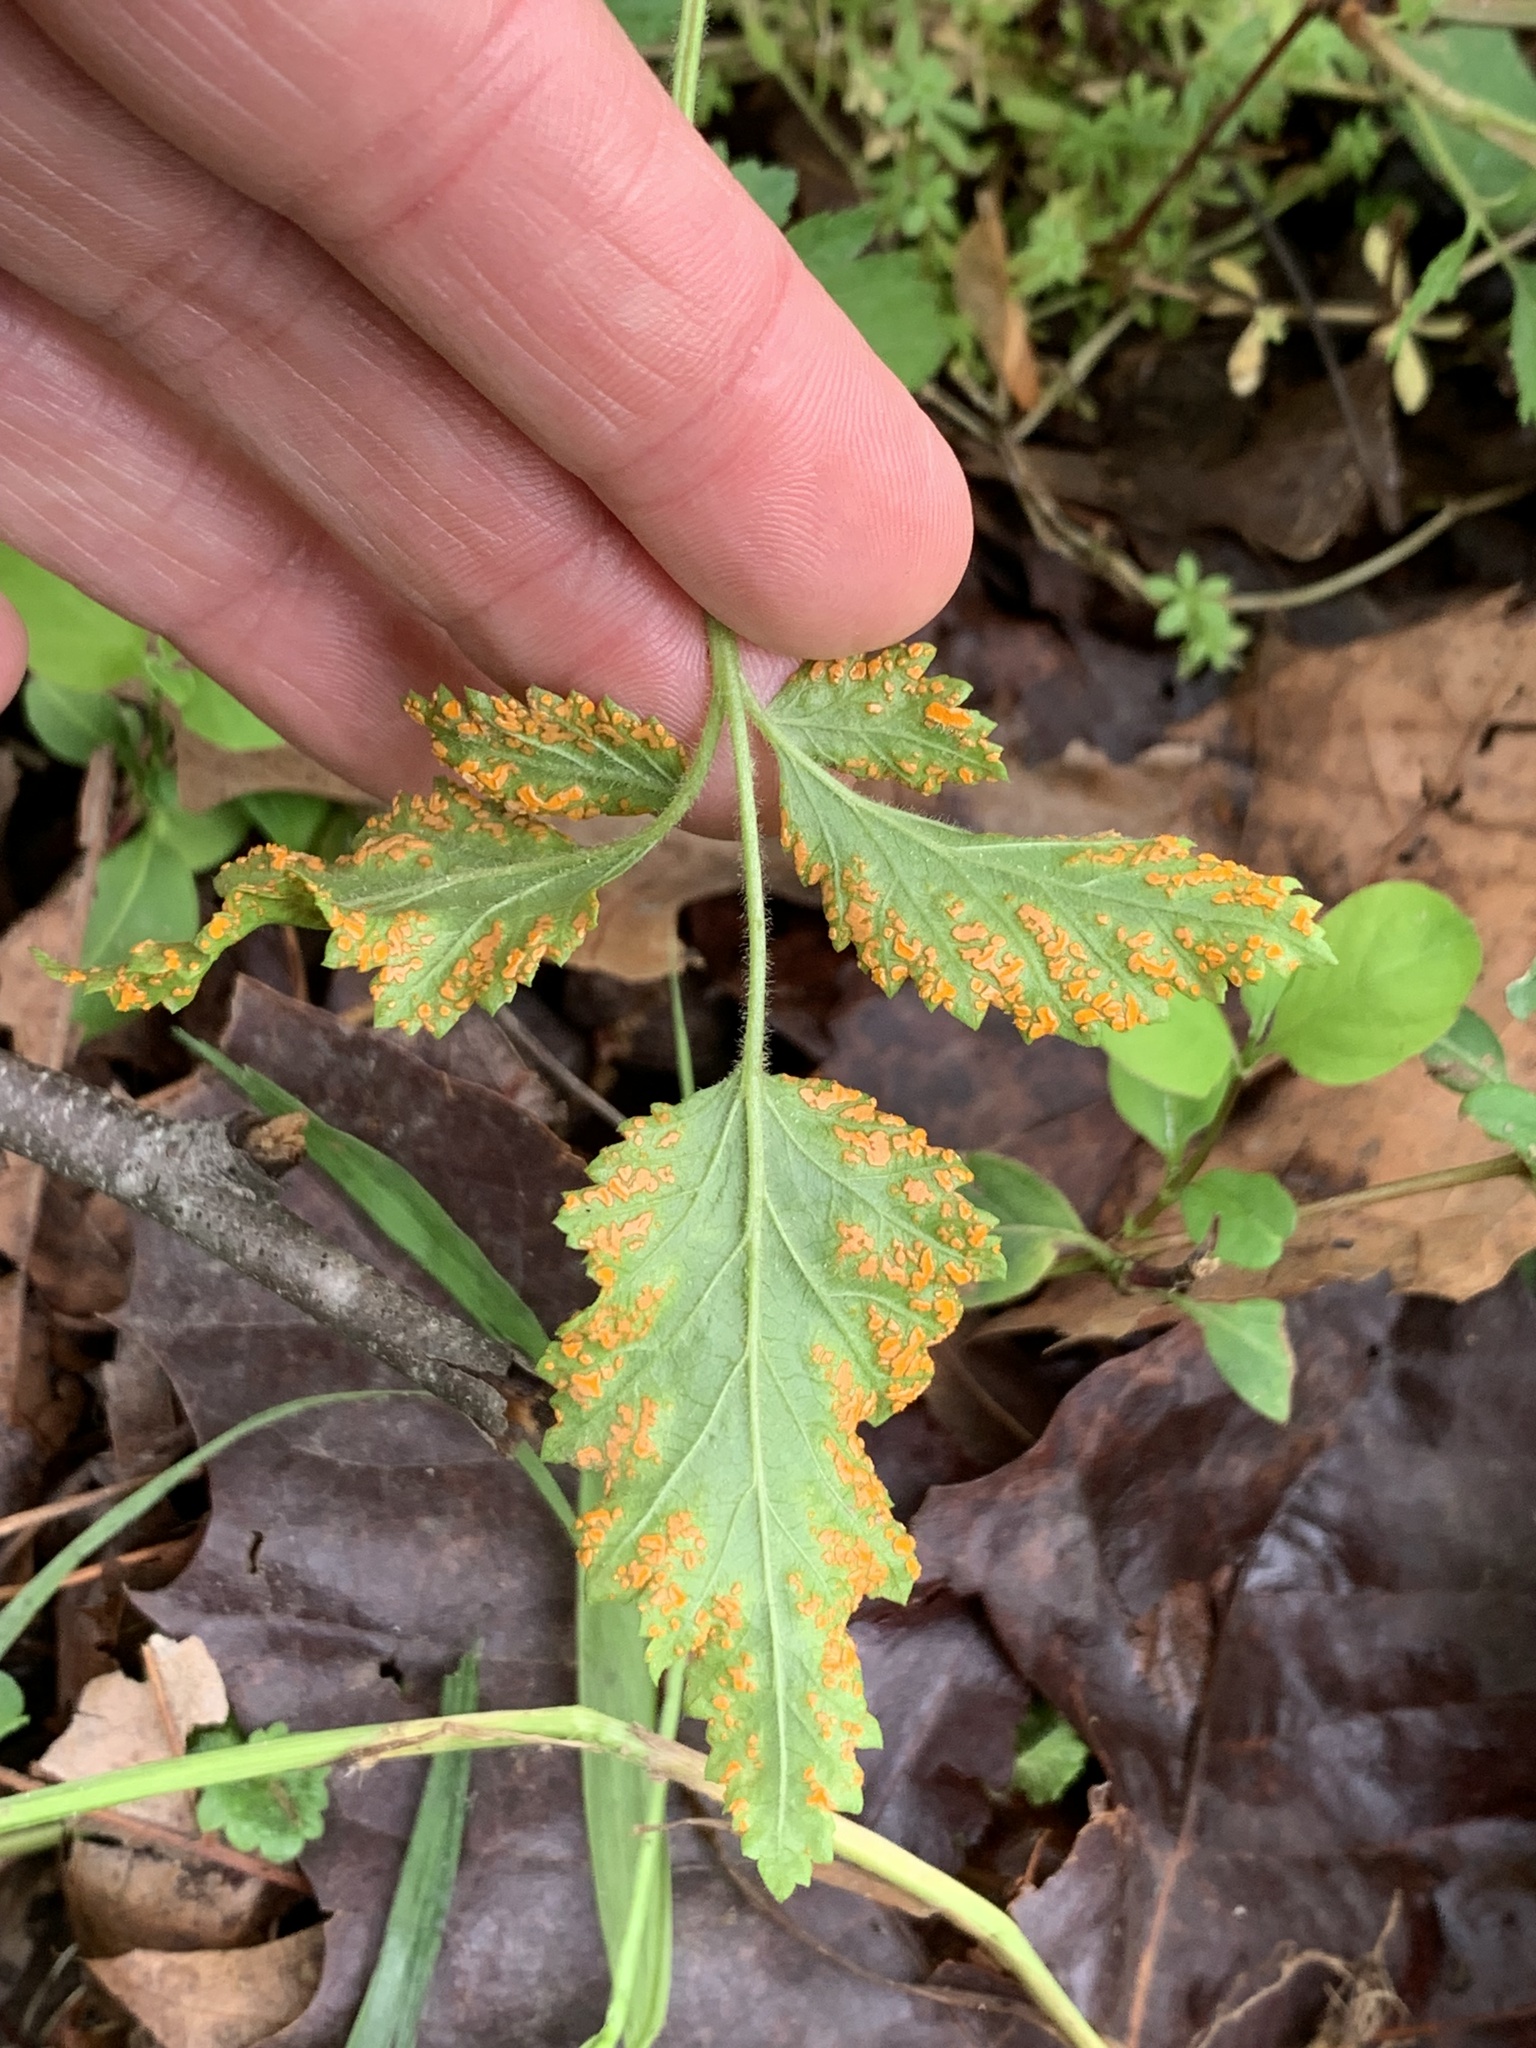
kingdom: Fungi
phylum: Basidiomycota
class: Pucciniomycetes
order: Pucciniales
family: Phragmidiaceae
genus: Arthuriomyces
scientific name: Arthuriomyces peckianus
